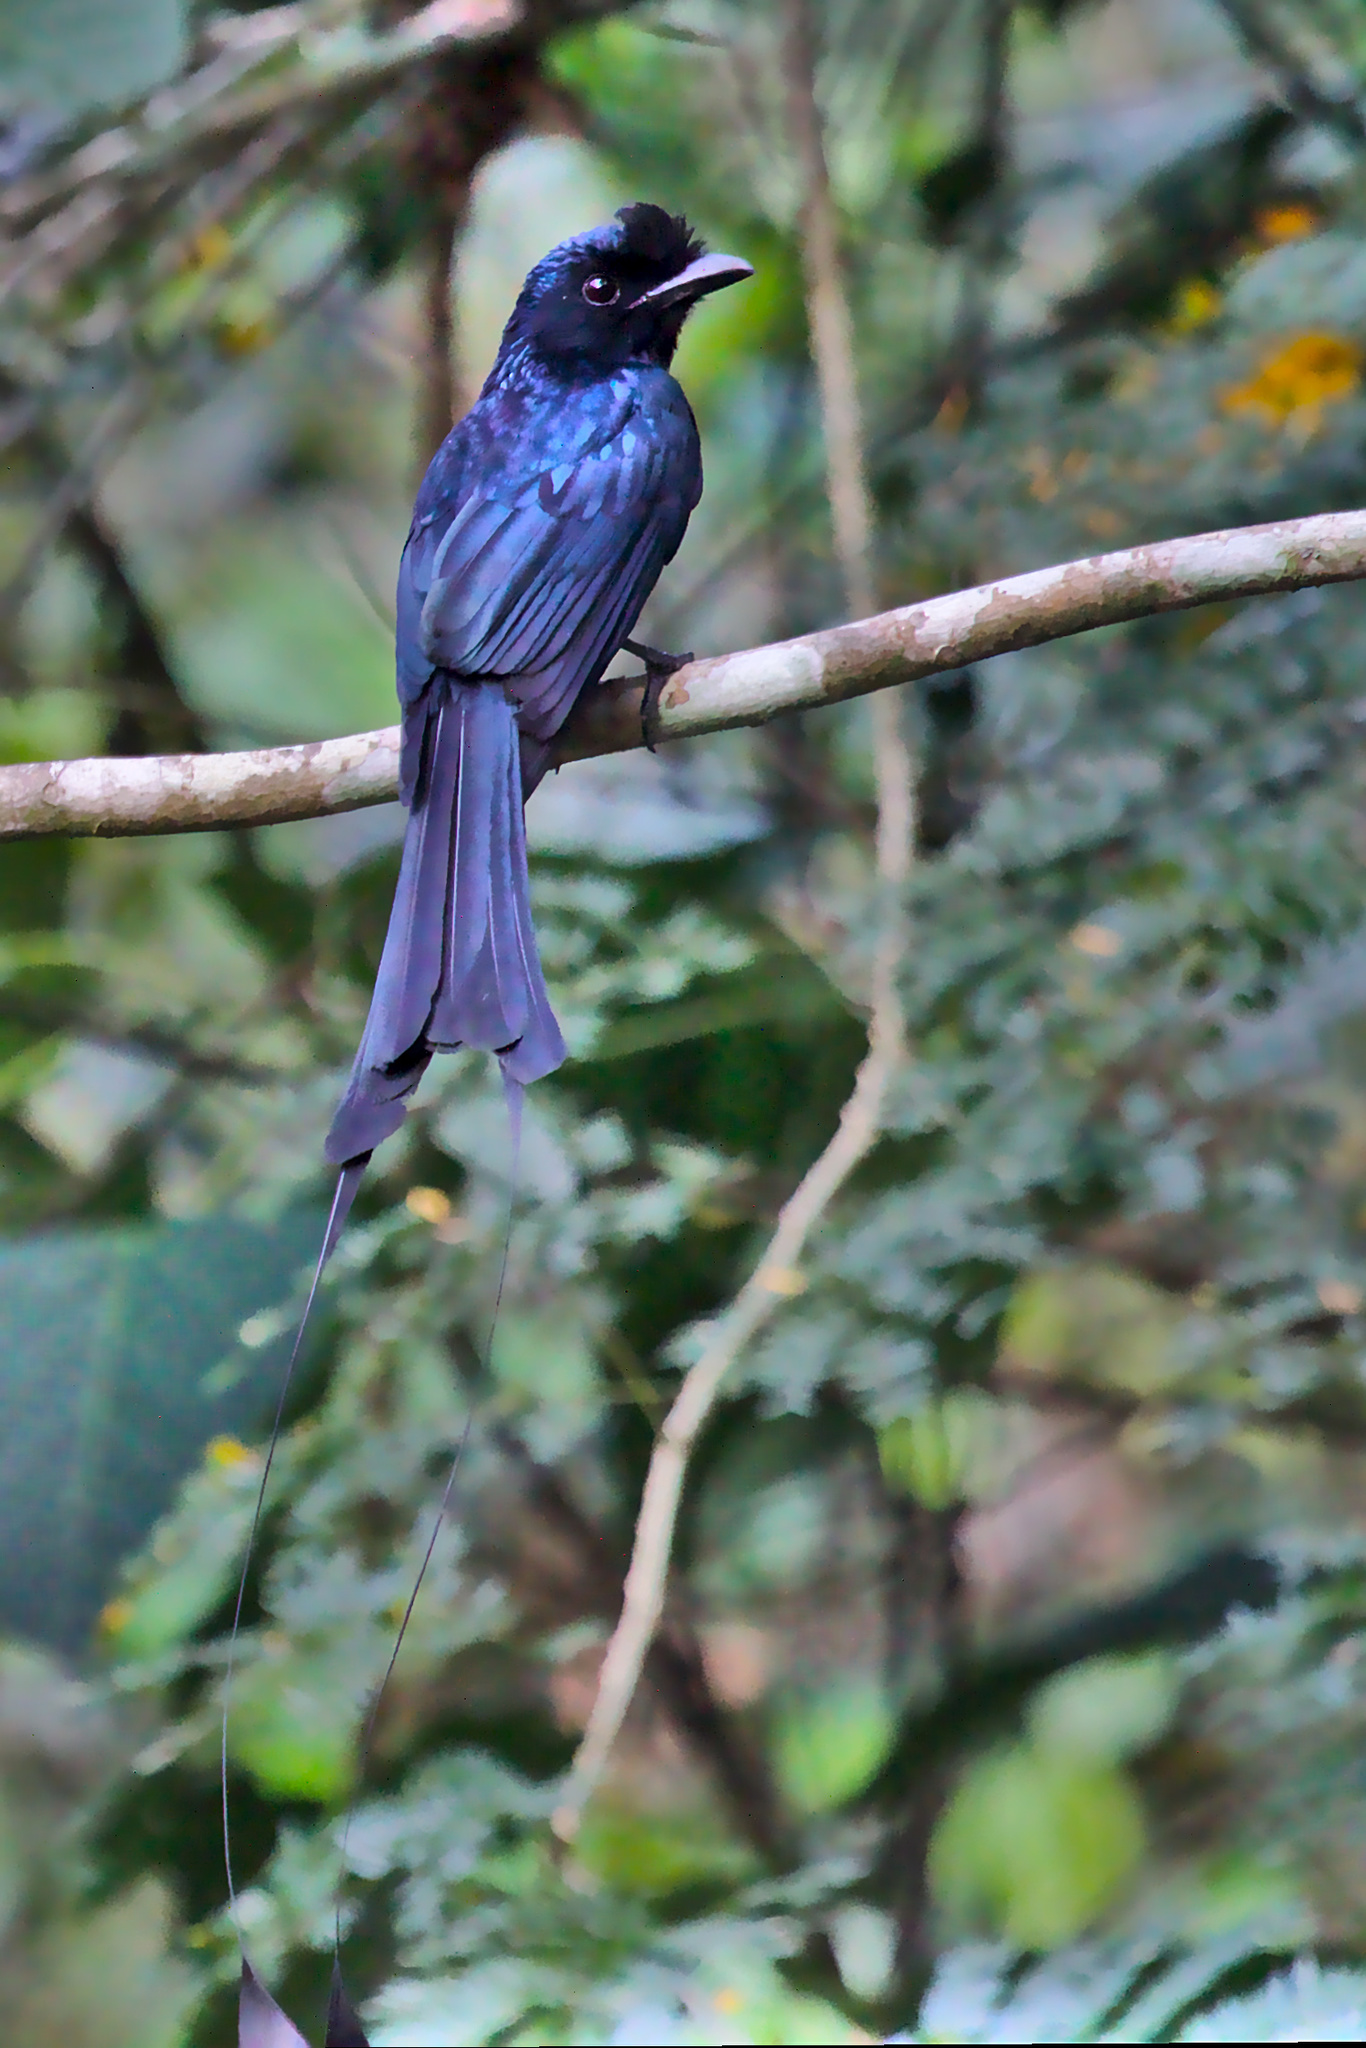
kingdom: Animalia
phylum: Chordata
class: Aves
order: Passeriformes
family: Dicruridae
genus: Dicrurus
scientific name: Dicrurus paradiseus
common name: Greater racket-tailed drongo
